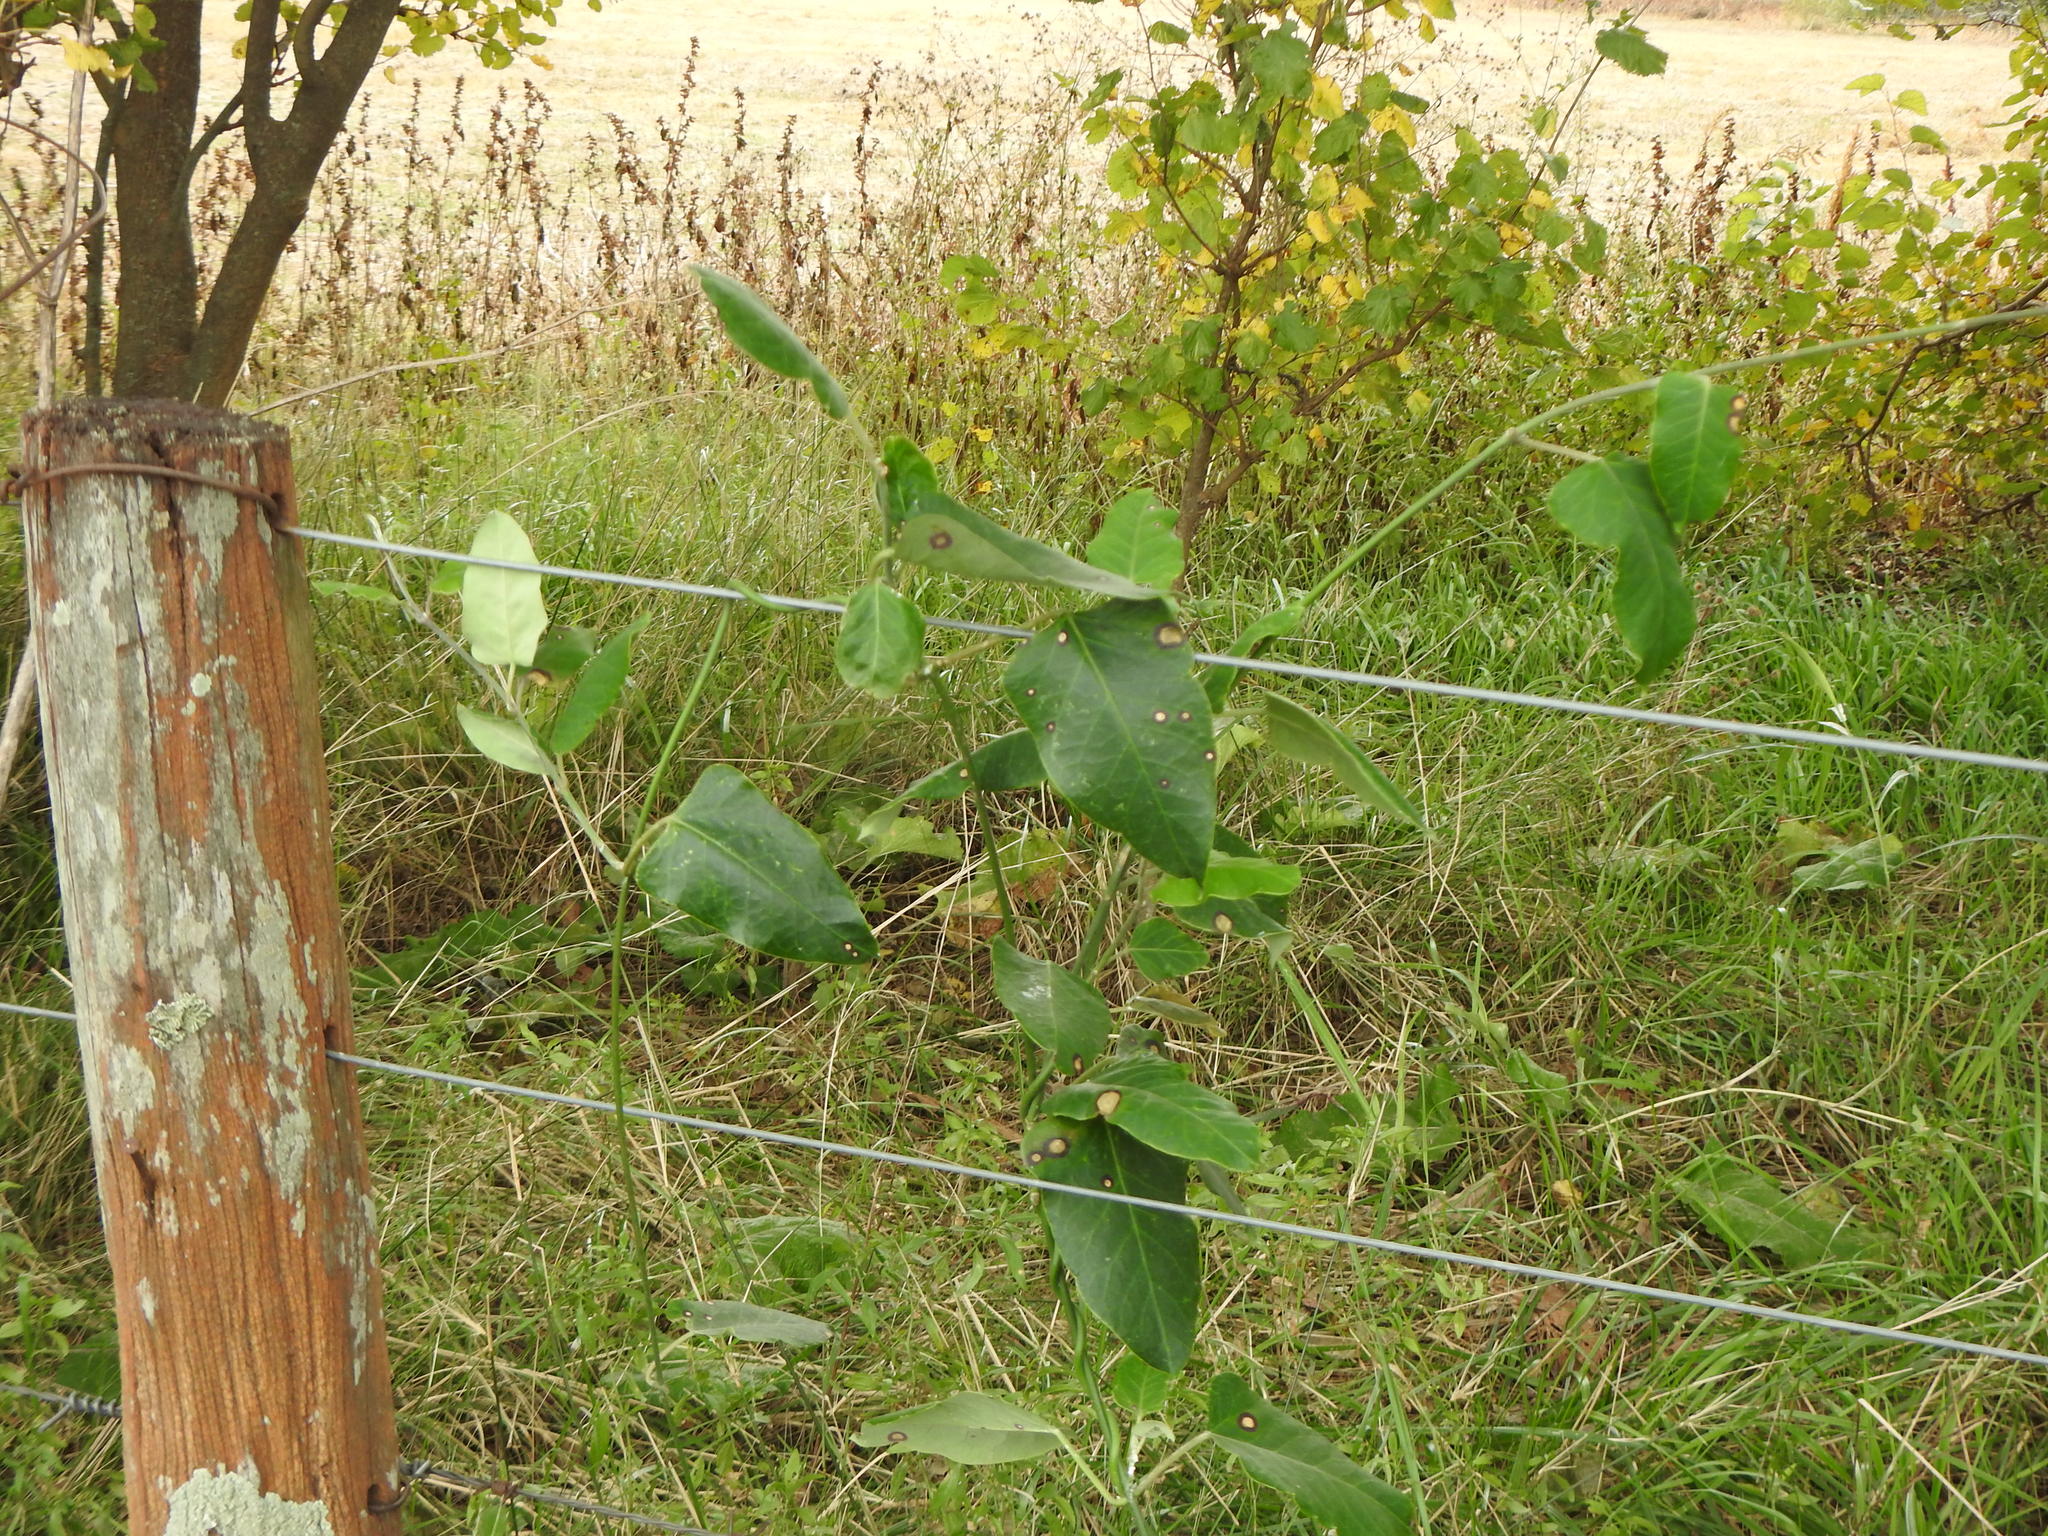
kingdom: Plantae
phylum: Tracheophyta
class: Magnoliopsida
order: Gentianales
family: Apocynaceae
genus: Araujia
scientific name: Araujia sericifera
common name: White bladderflower
